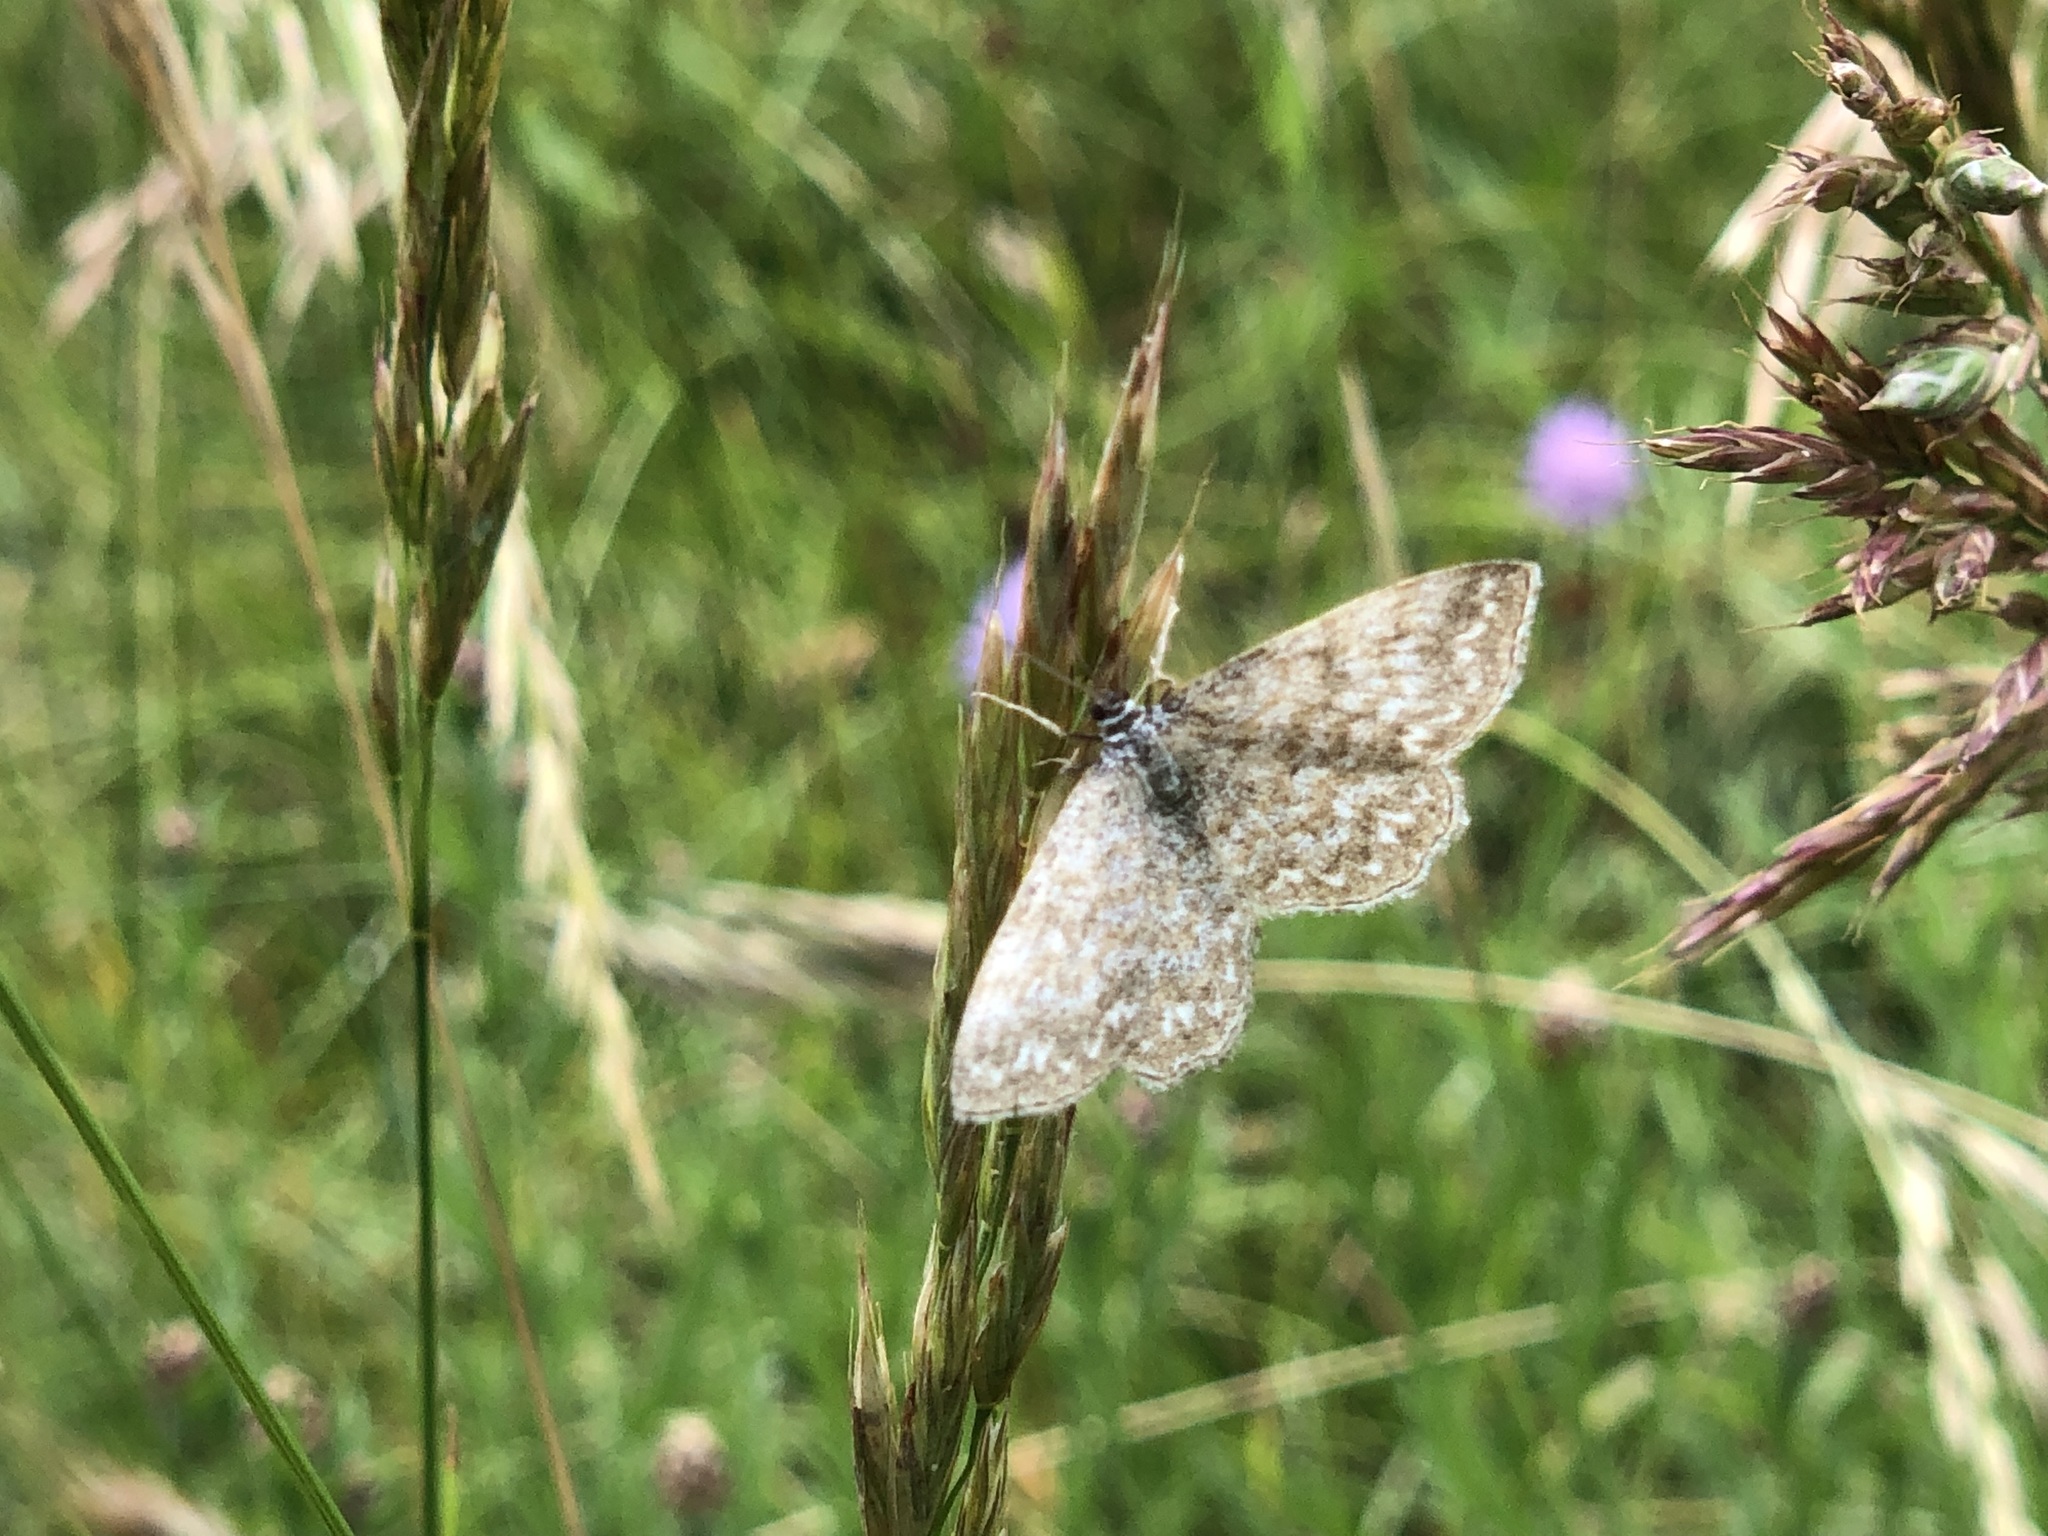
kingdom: Animalia
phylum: Arthropoda
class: Insecta
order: Lepidoptera
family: Geometridae
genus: Scopula
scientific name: Scopula immorata
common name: Lewes wave
